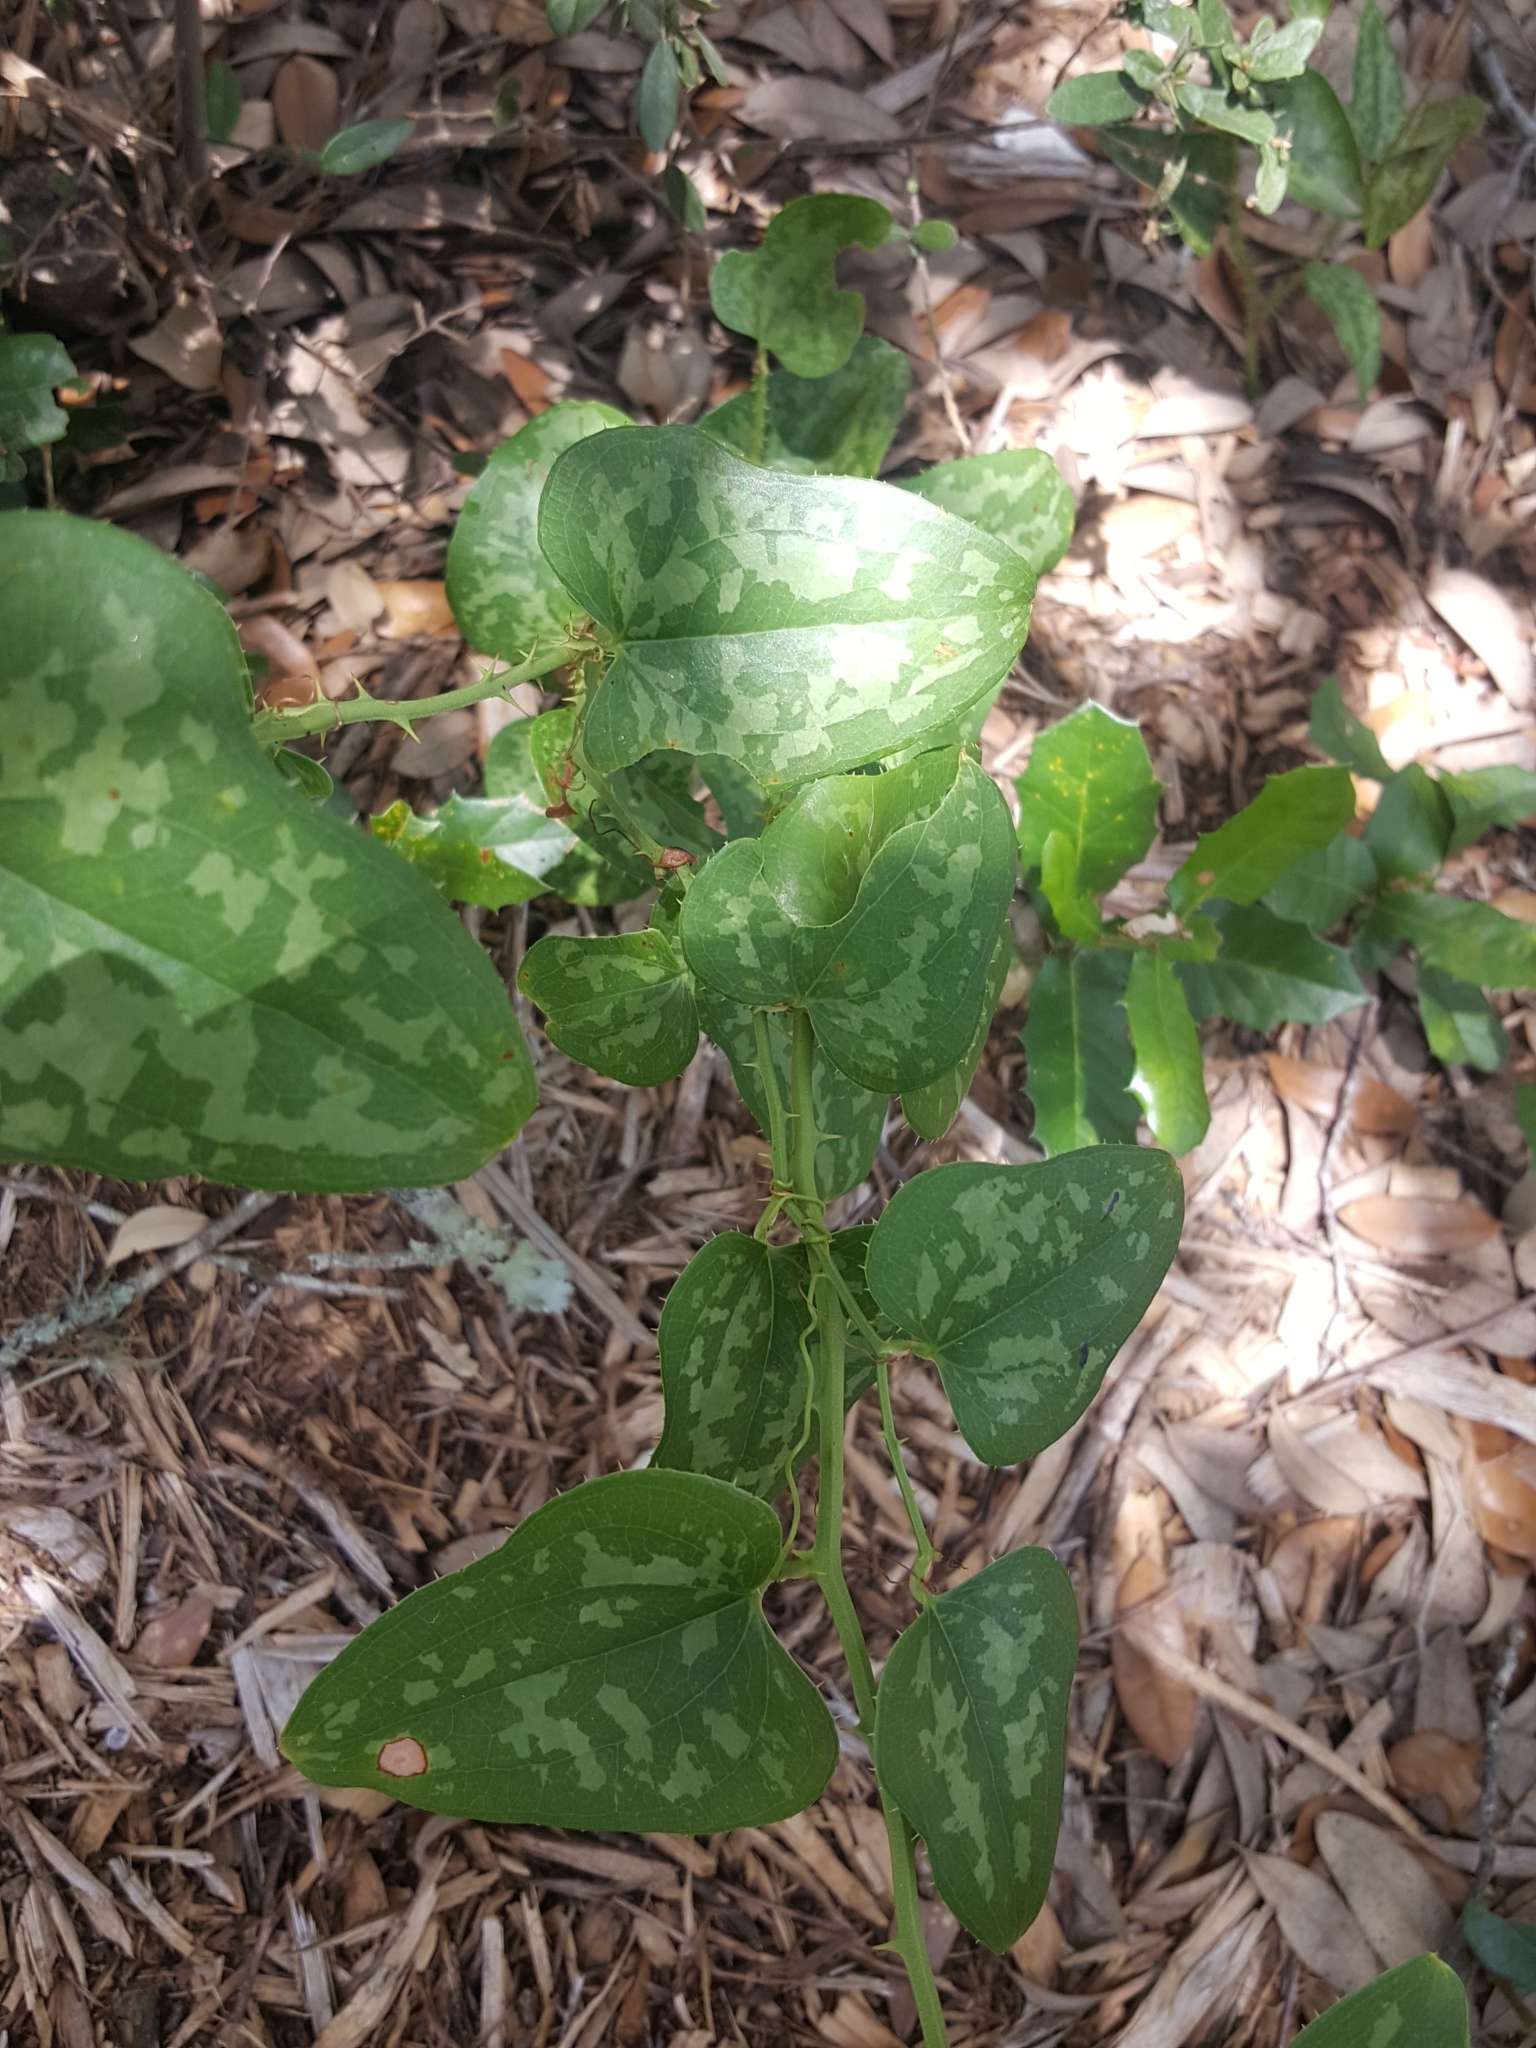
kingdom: Plantae
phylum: Tracheophyta
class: Liliopsida
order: Liliales
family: Smilacaceae
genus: Smilax
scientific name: Smilax bona-nox
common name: Catbrier
